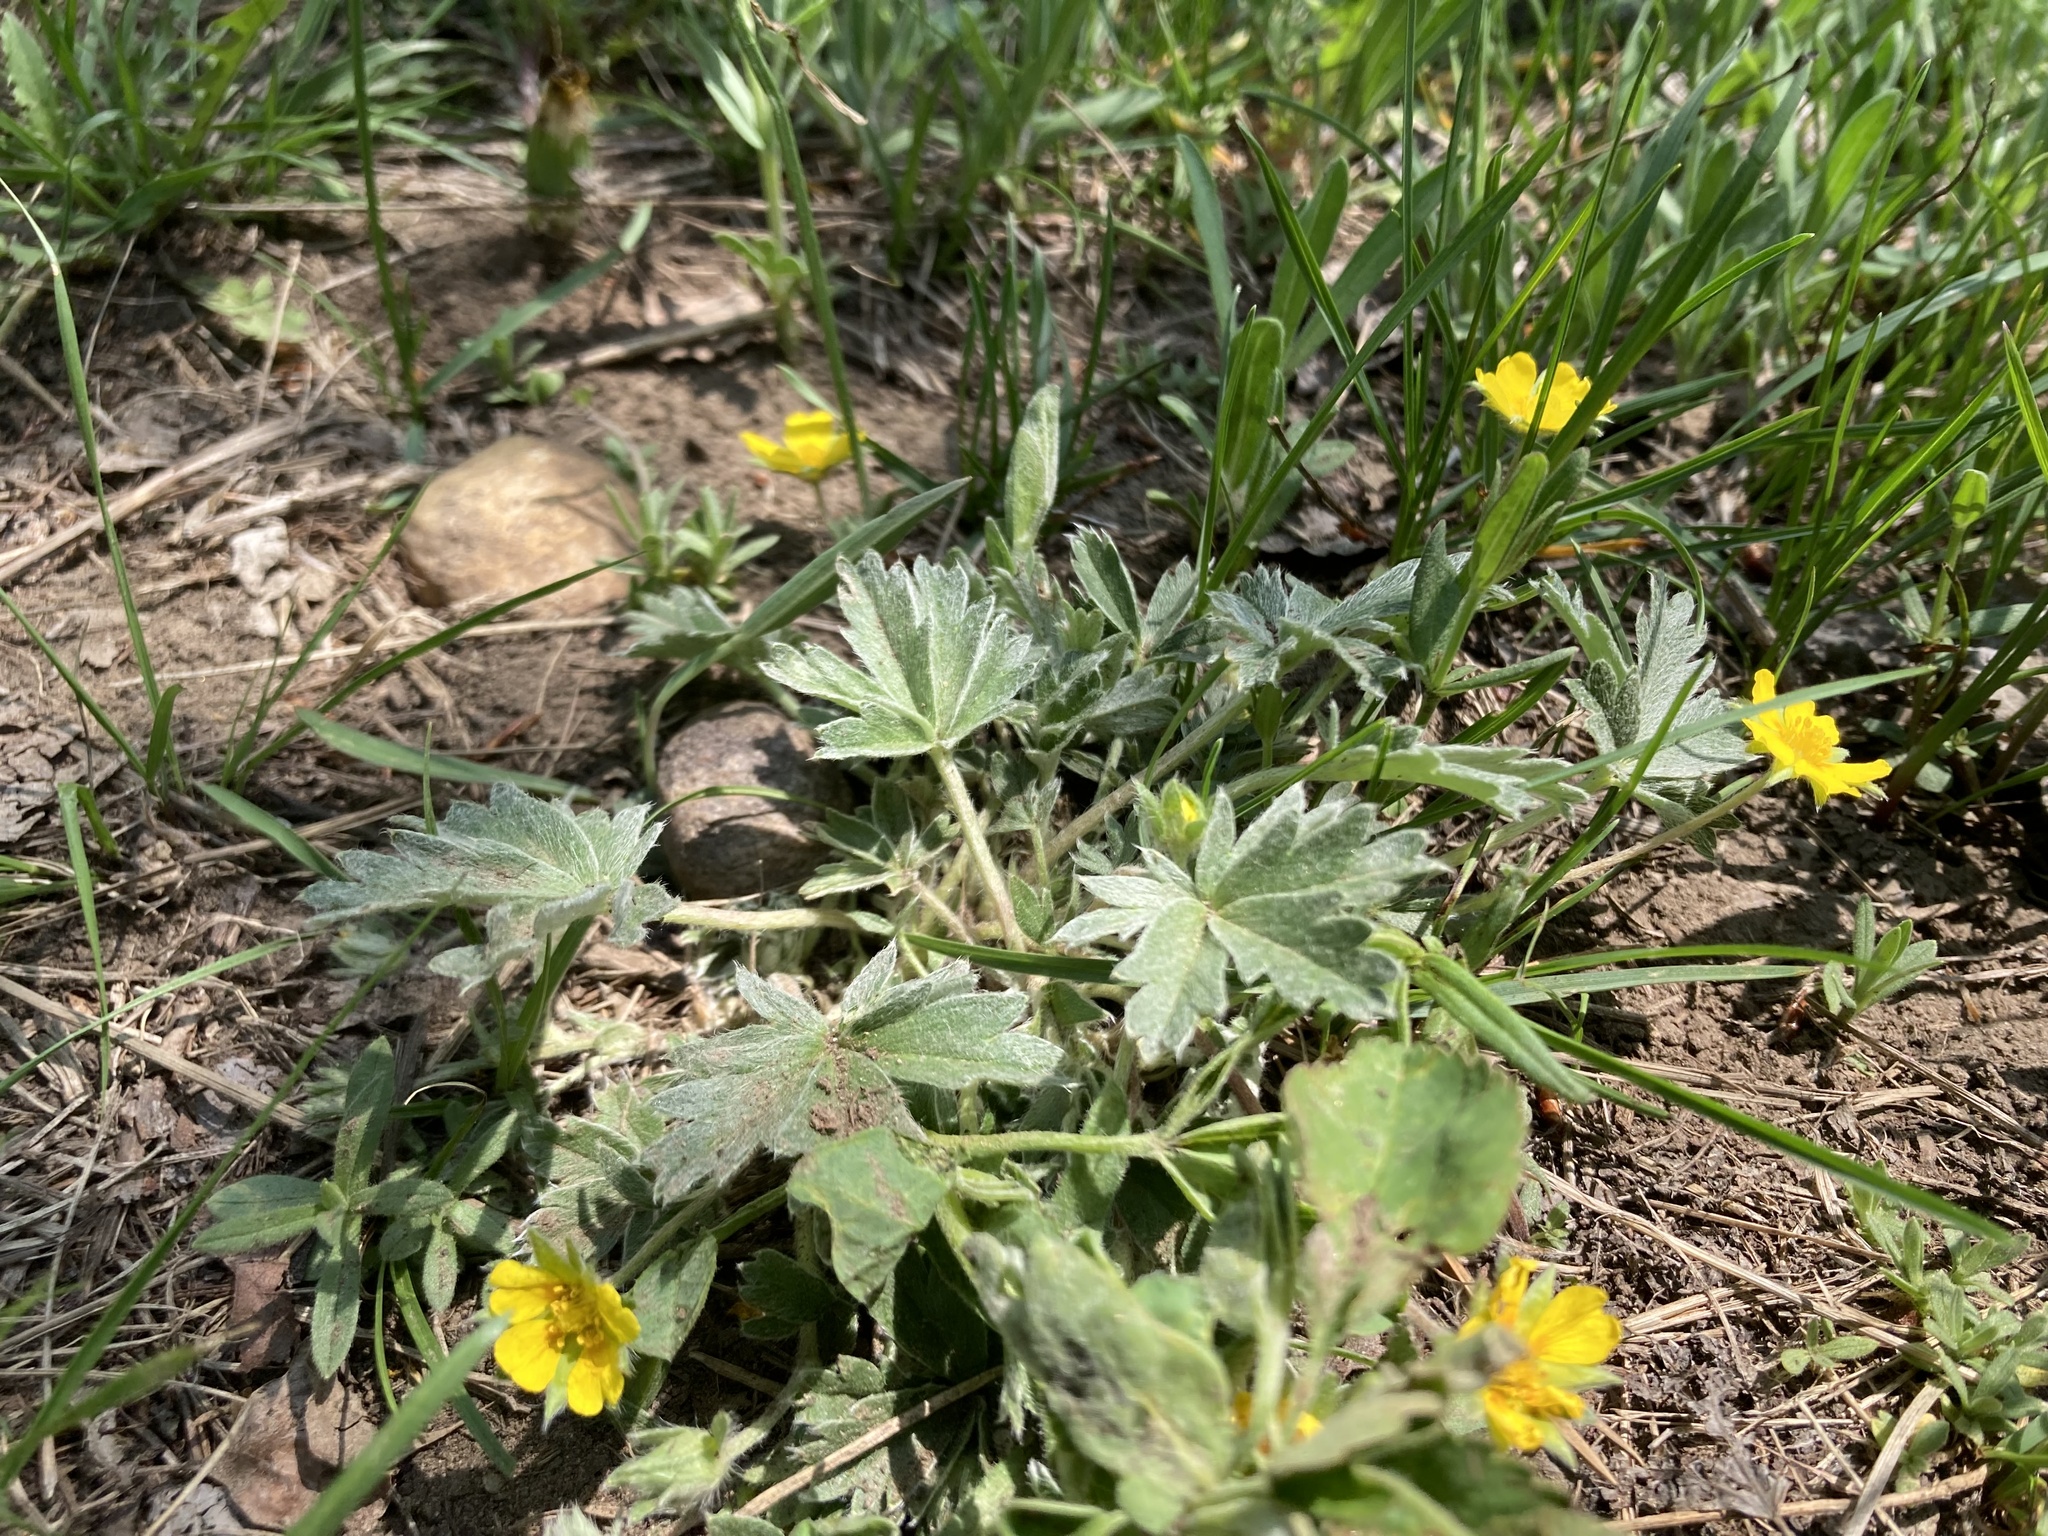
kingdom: Plantae
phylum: Tracheophyta
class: Magnoliopsida
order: Rosales
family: Rosaceae
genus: Potentilla
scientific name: Potentilla concinna
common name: Early cinquefoil
